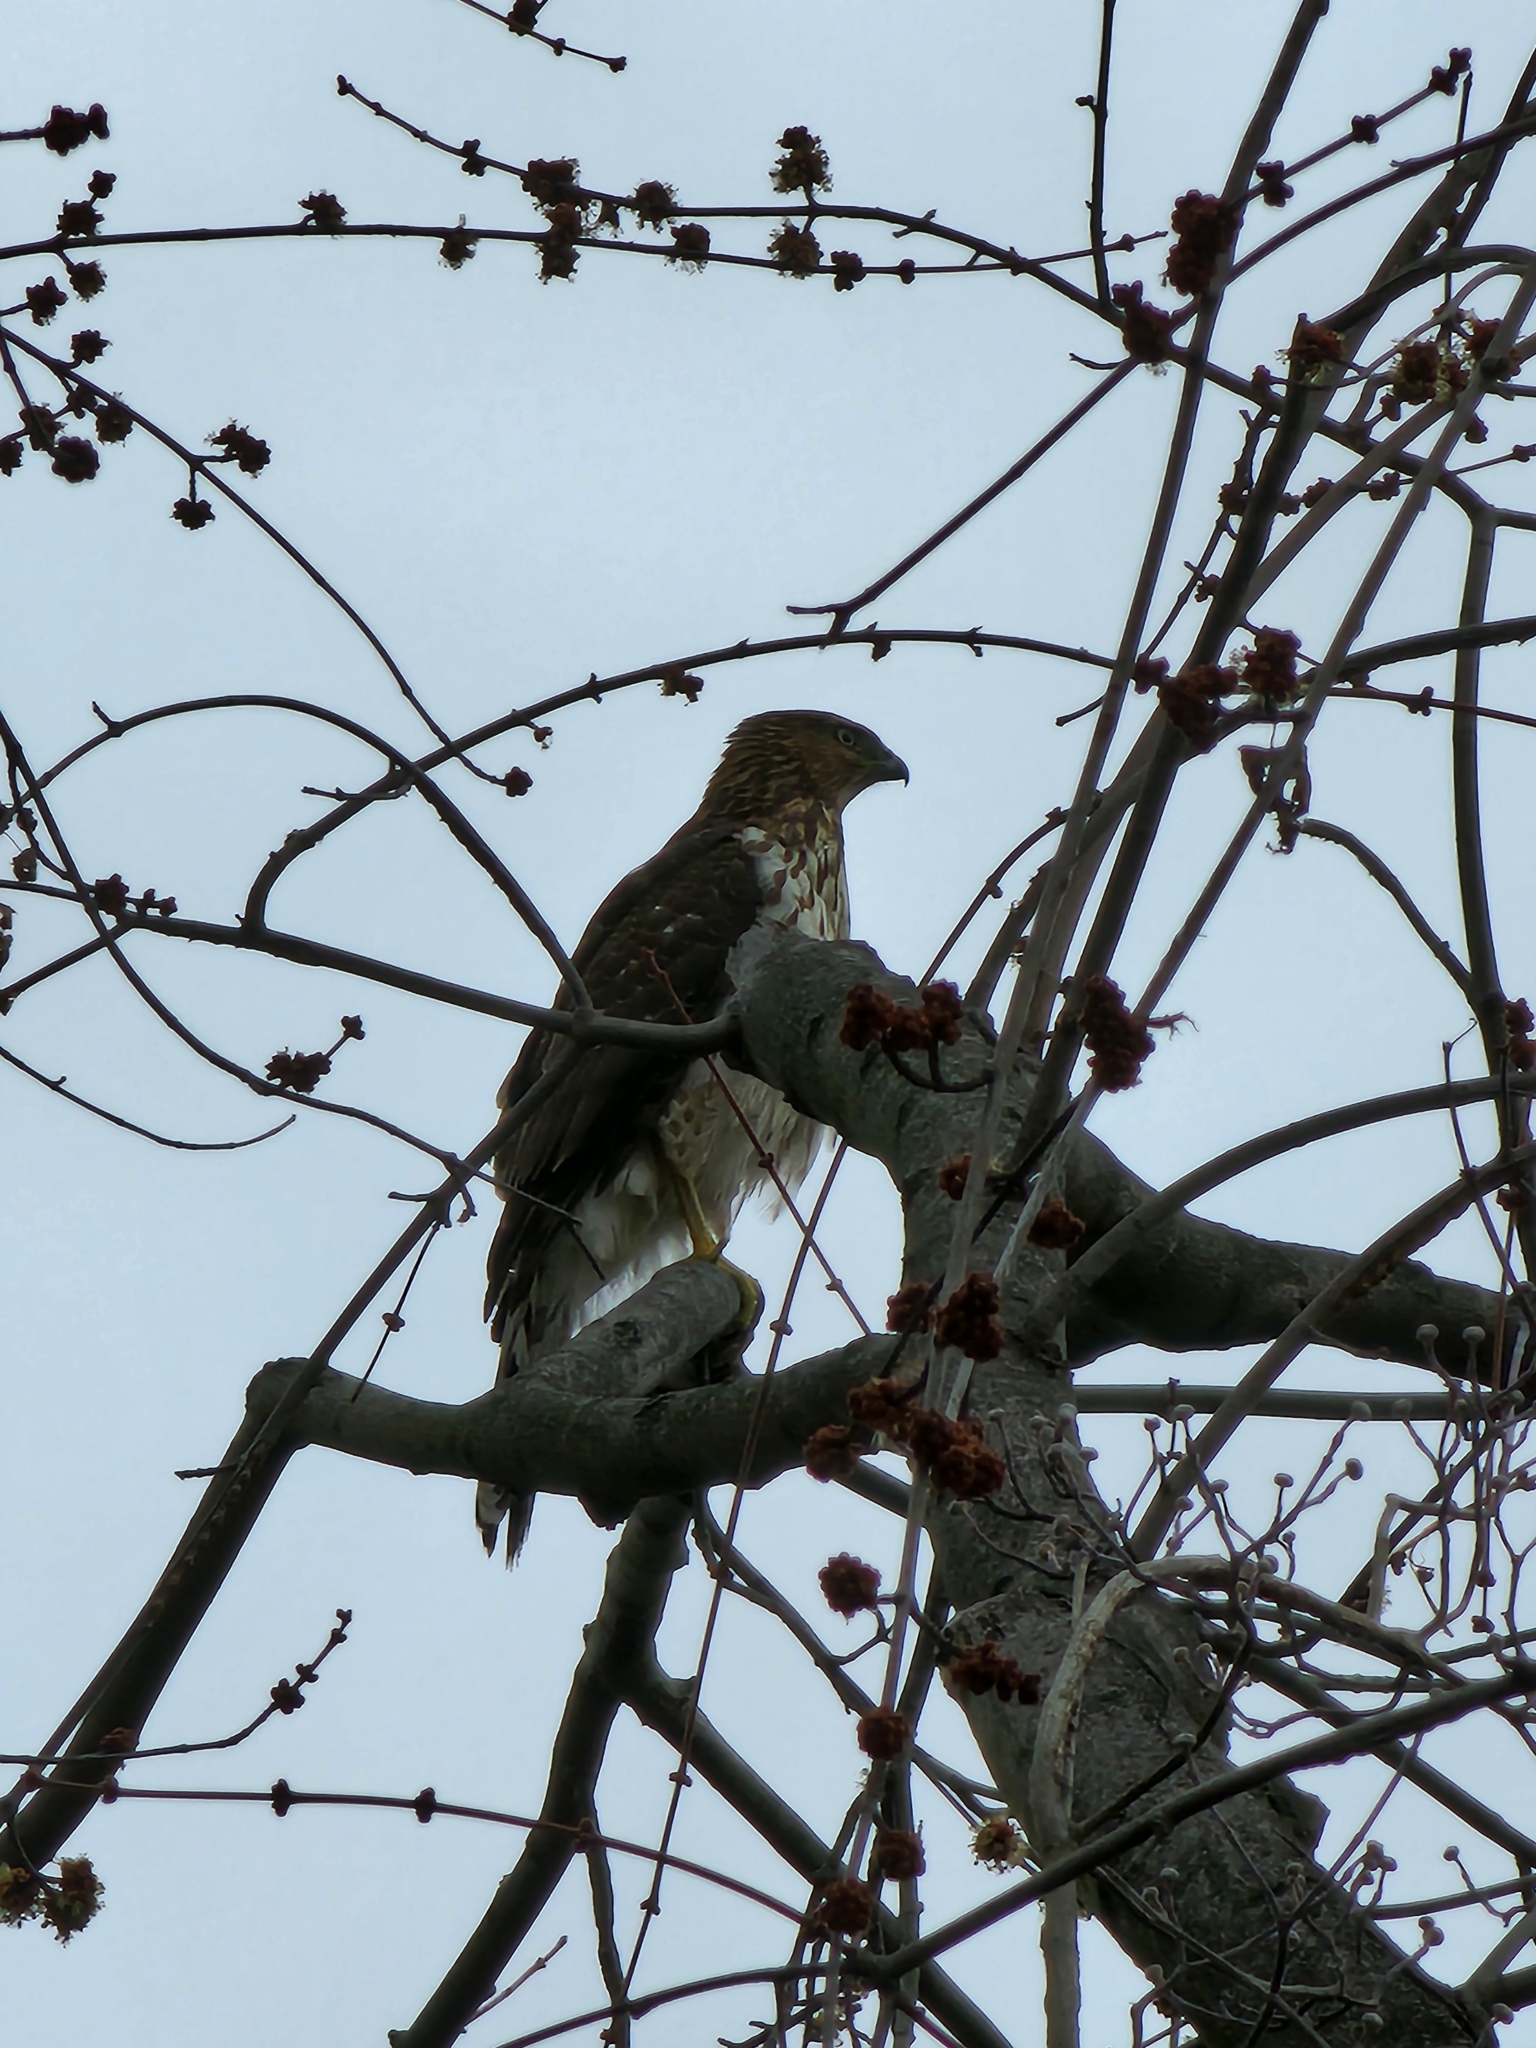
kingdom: Animalia
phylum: Chordata
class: Aves
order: Accipitriformes
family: Accipitridae
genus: Accipiter
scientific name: Accipiter cooperii
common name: Cooper's hawk
